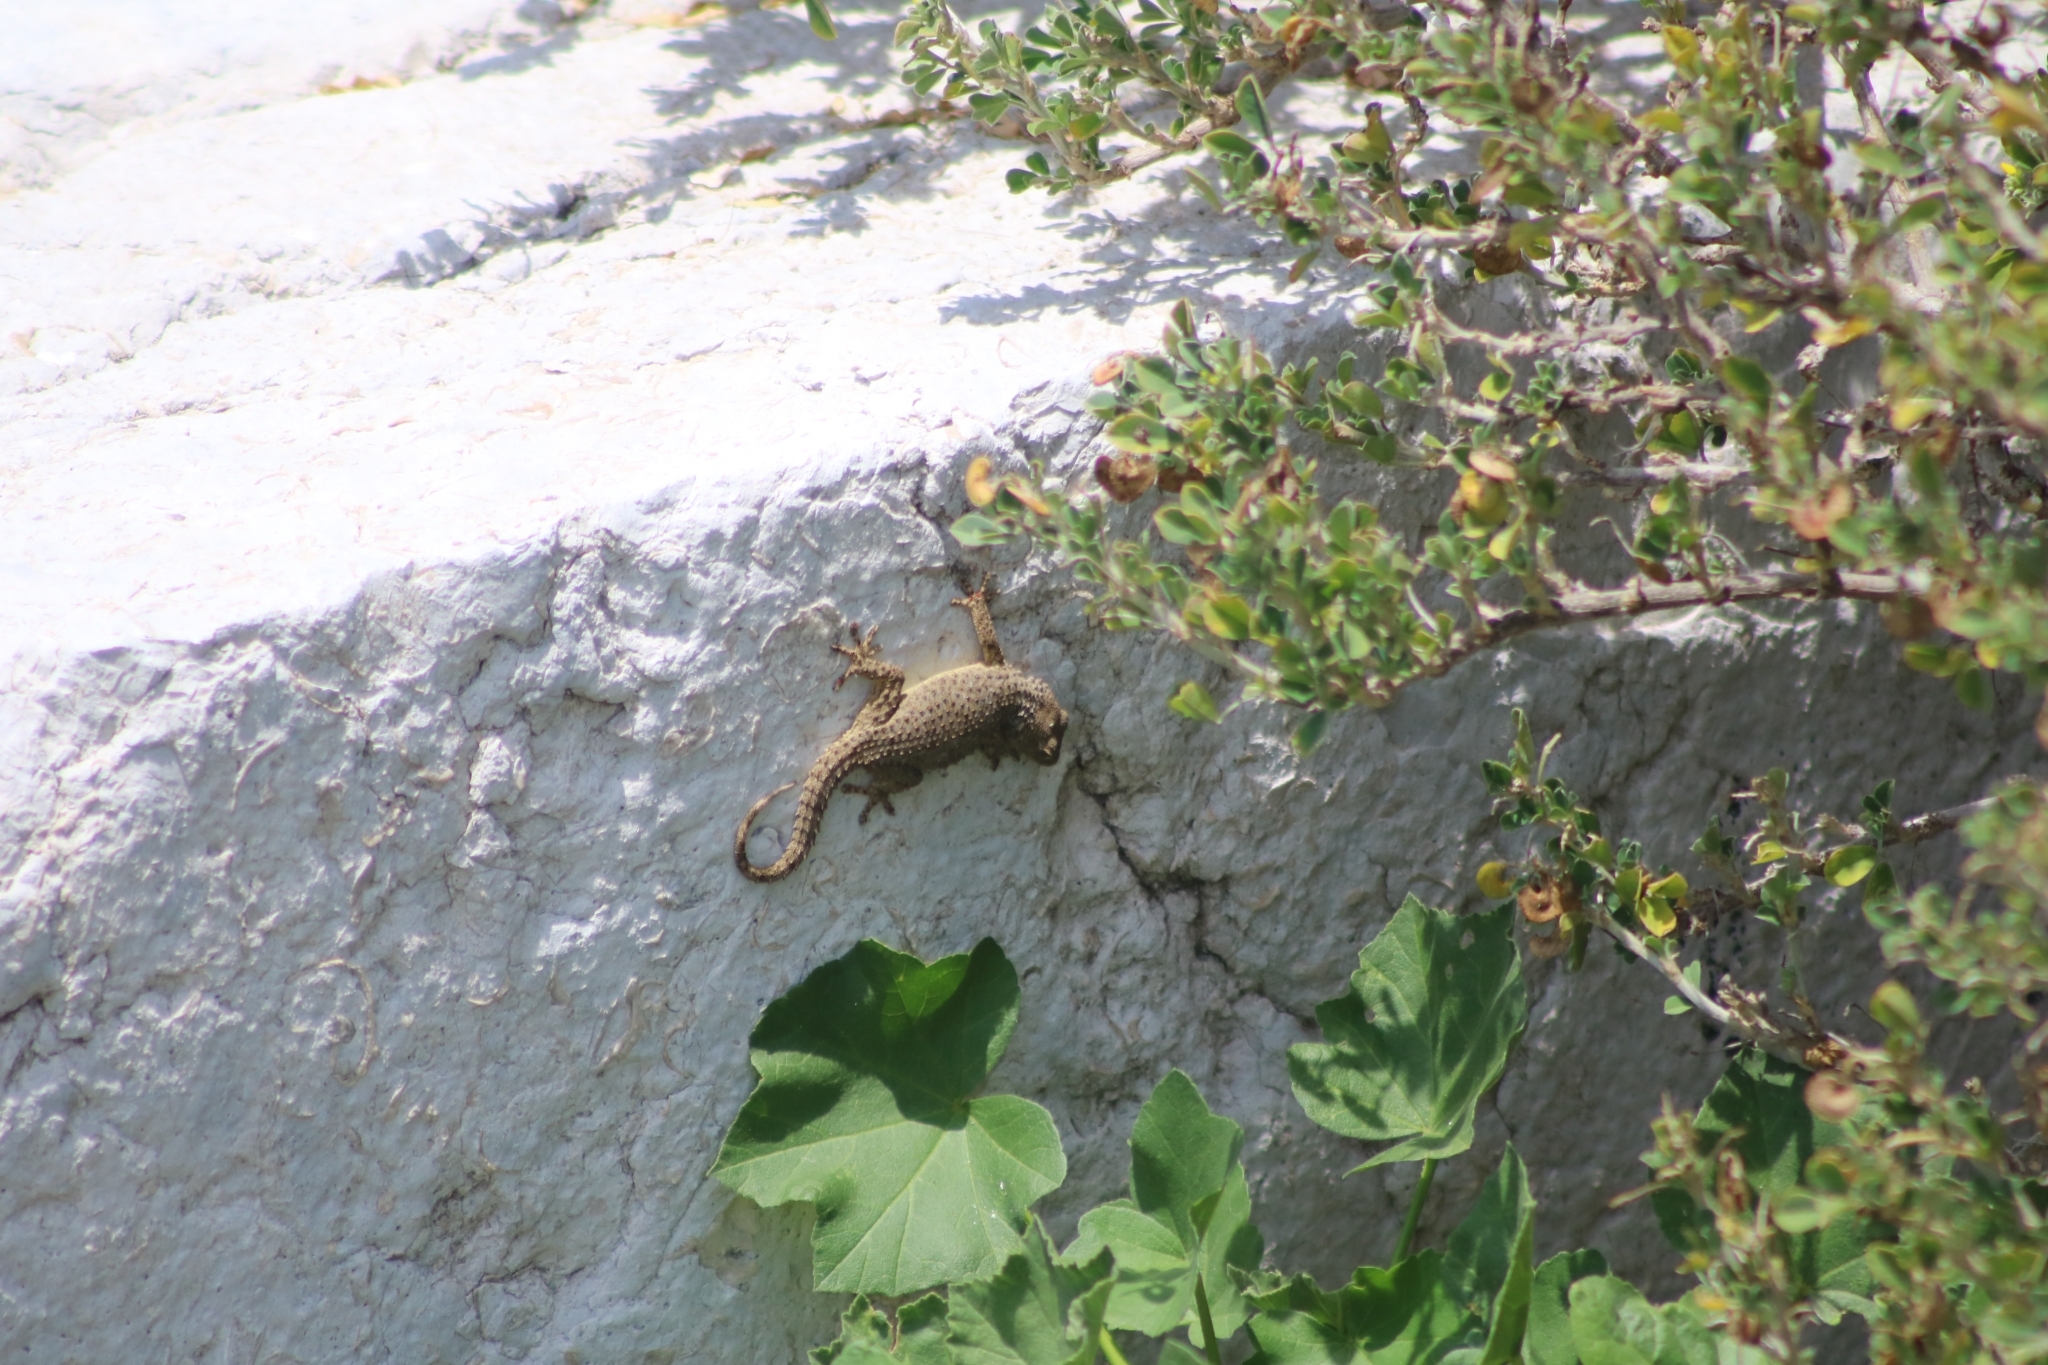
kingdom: Animalia
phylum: Chordata
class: Squamata
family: Phyllodactylidae
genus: Tarentola
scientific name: Tarentola mauritanica
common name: Moorish gecko
